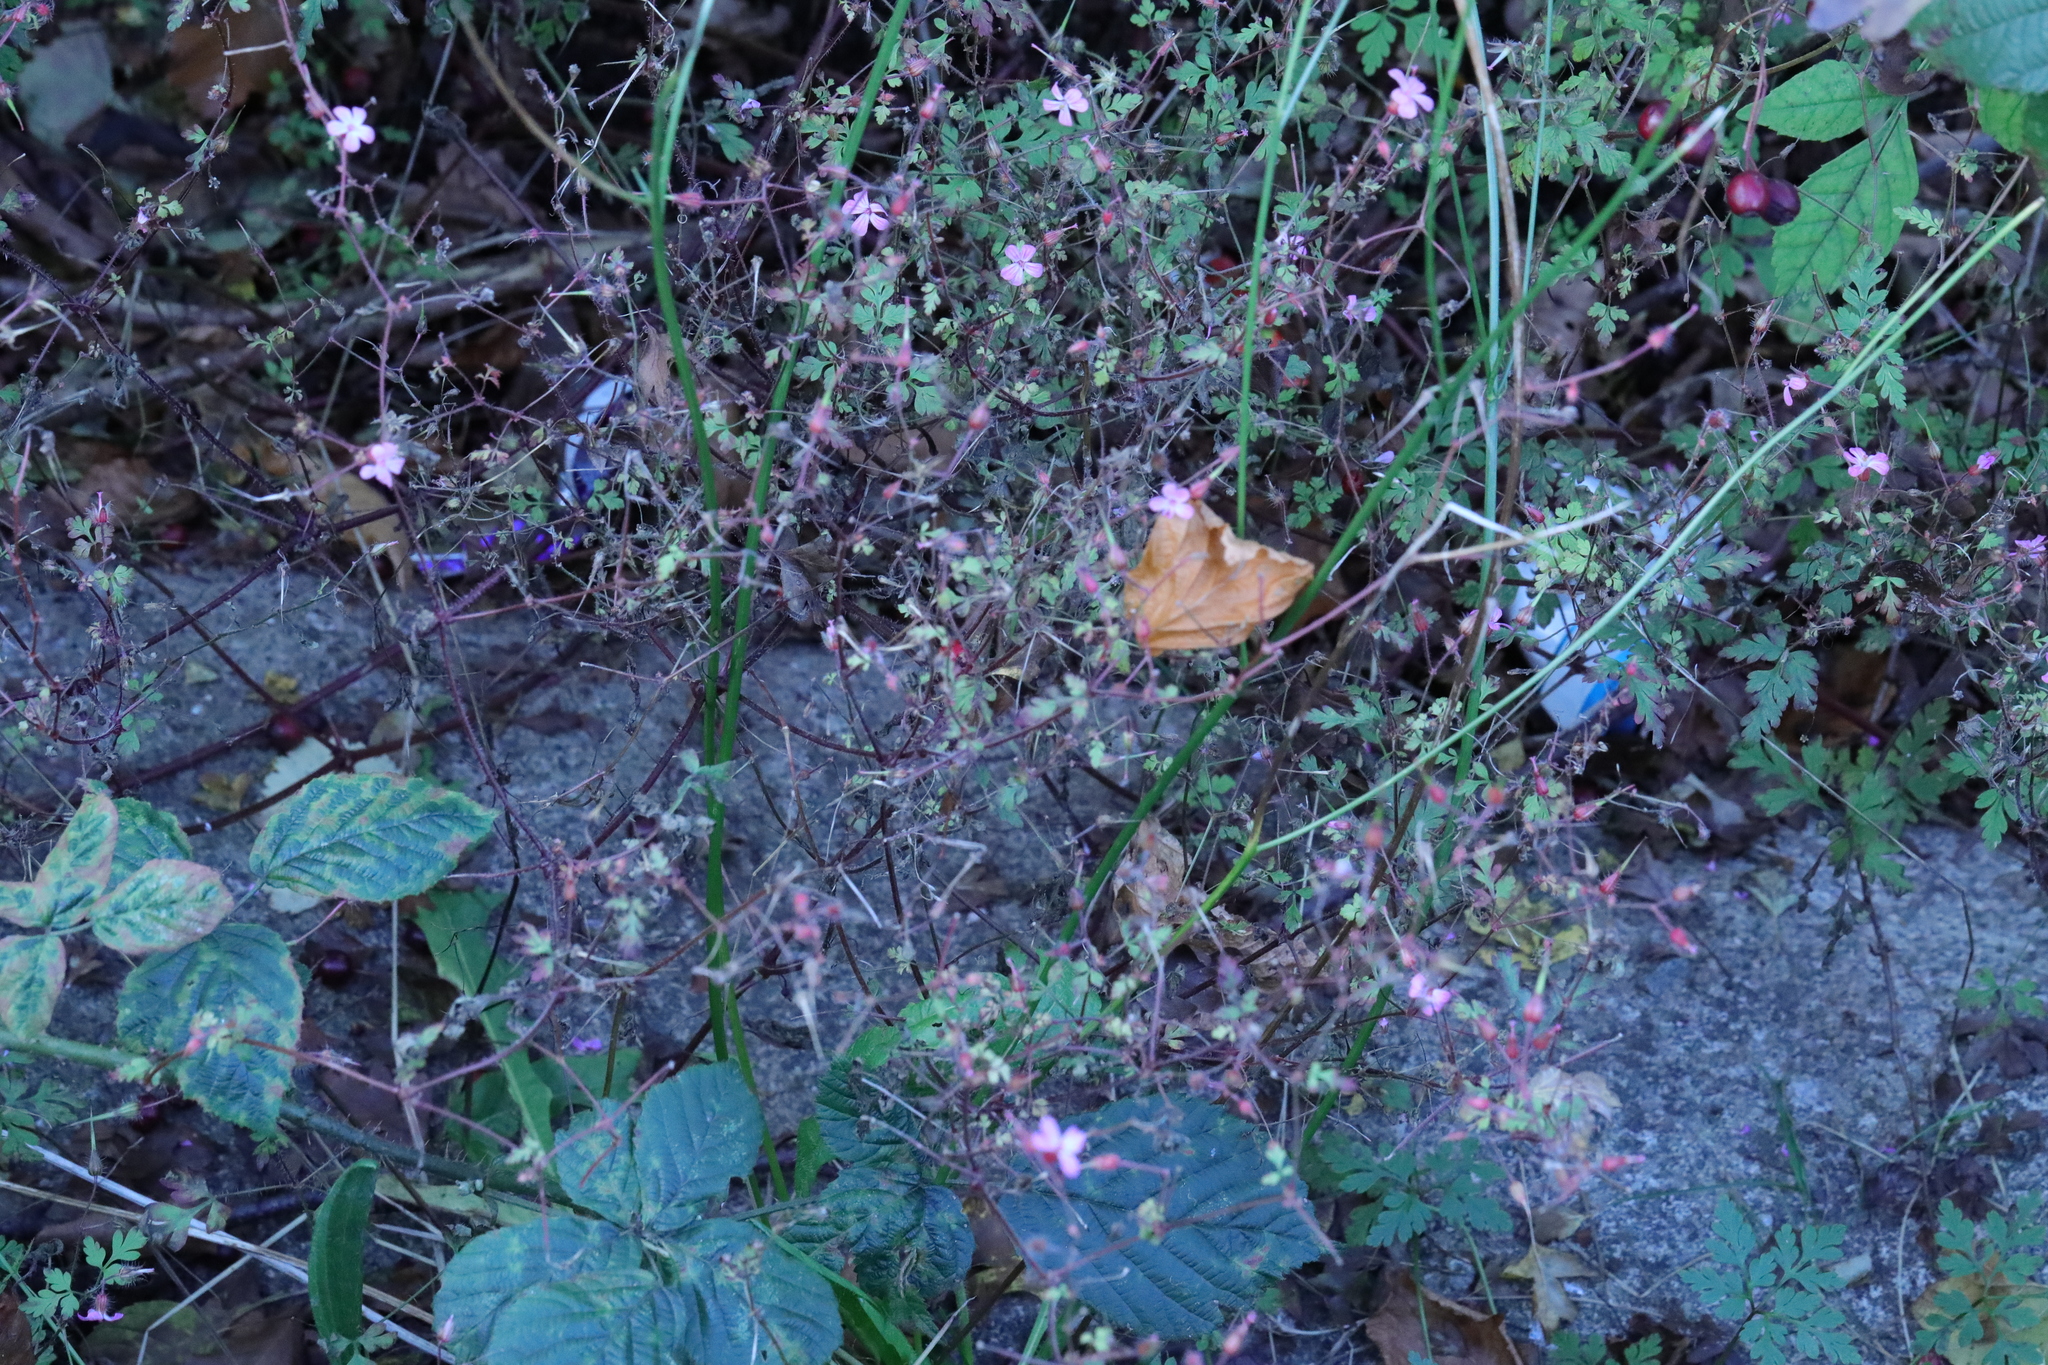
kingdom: Plantae
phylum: Tracheophyta
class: Magnoliopsida
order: Geraniales
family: Geraniaceae
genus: Geranium
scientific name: Geranium robertianum
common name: Herb-robert
